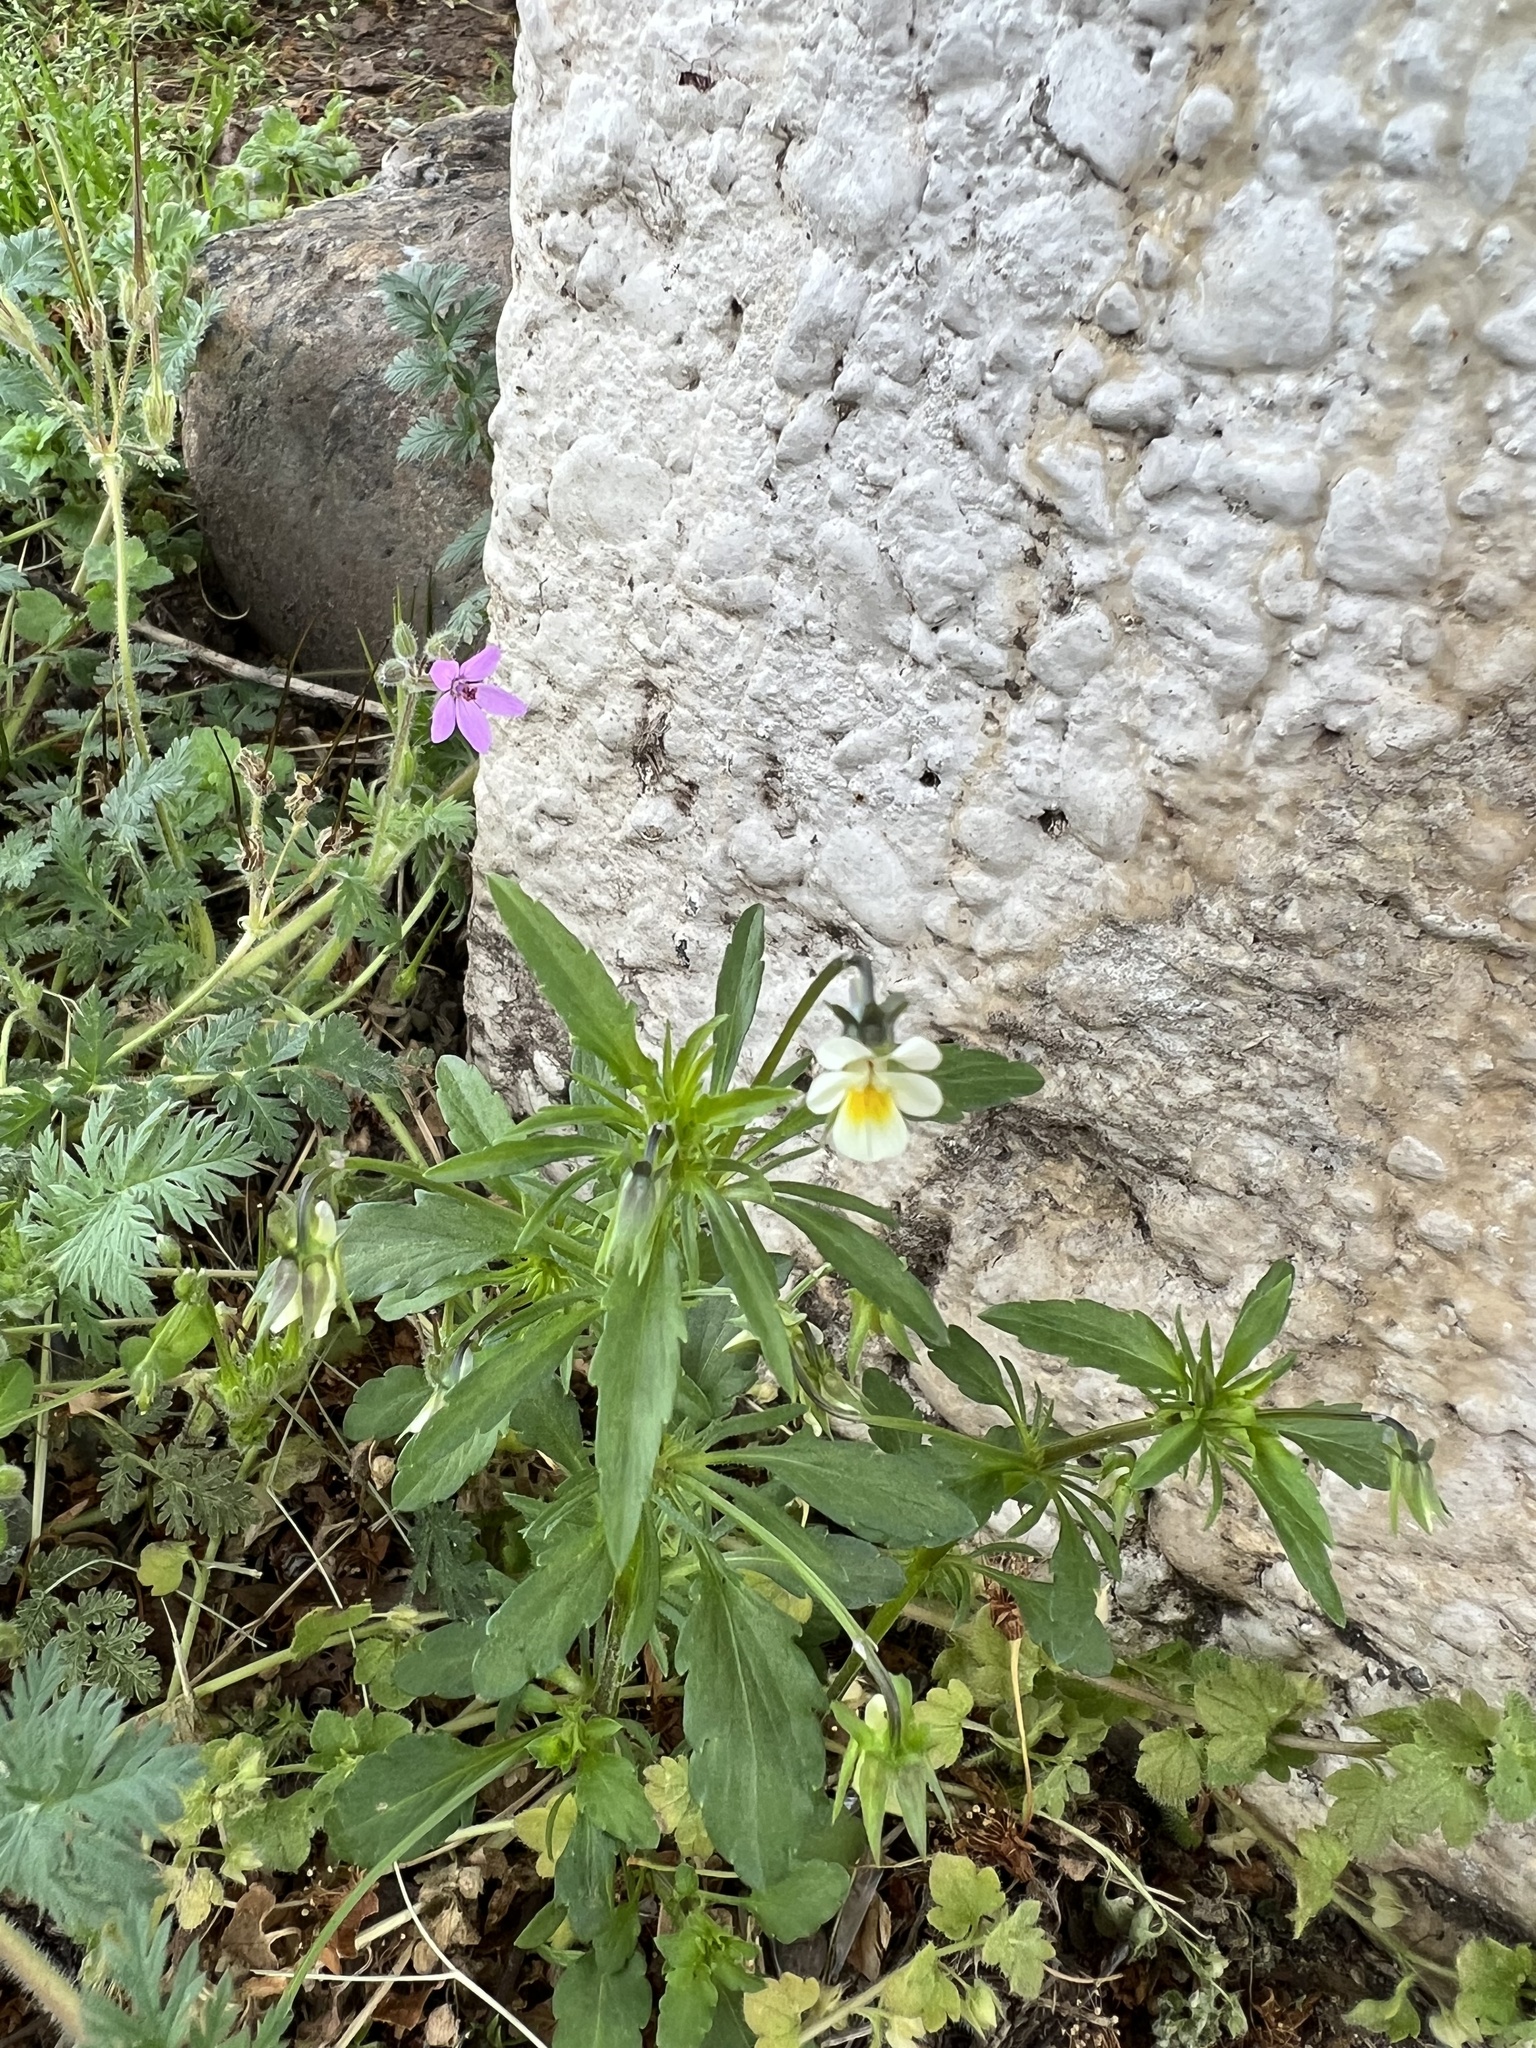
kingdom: Plantae
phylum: Tracheophyta
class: Magnoliopsida
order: Malpighiales
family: Violaceae
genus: Viola
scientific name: Viola arvensis
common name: Field pansy
